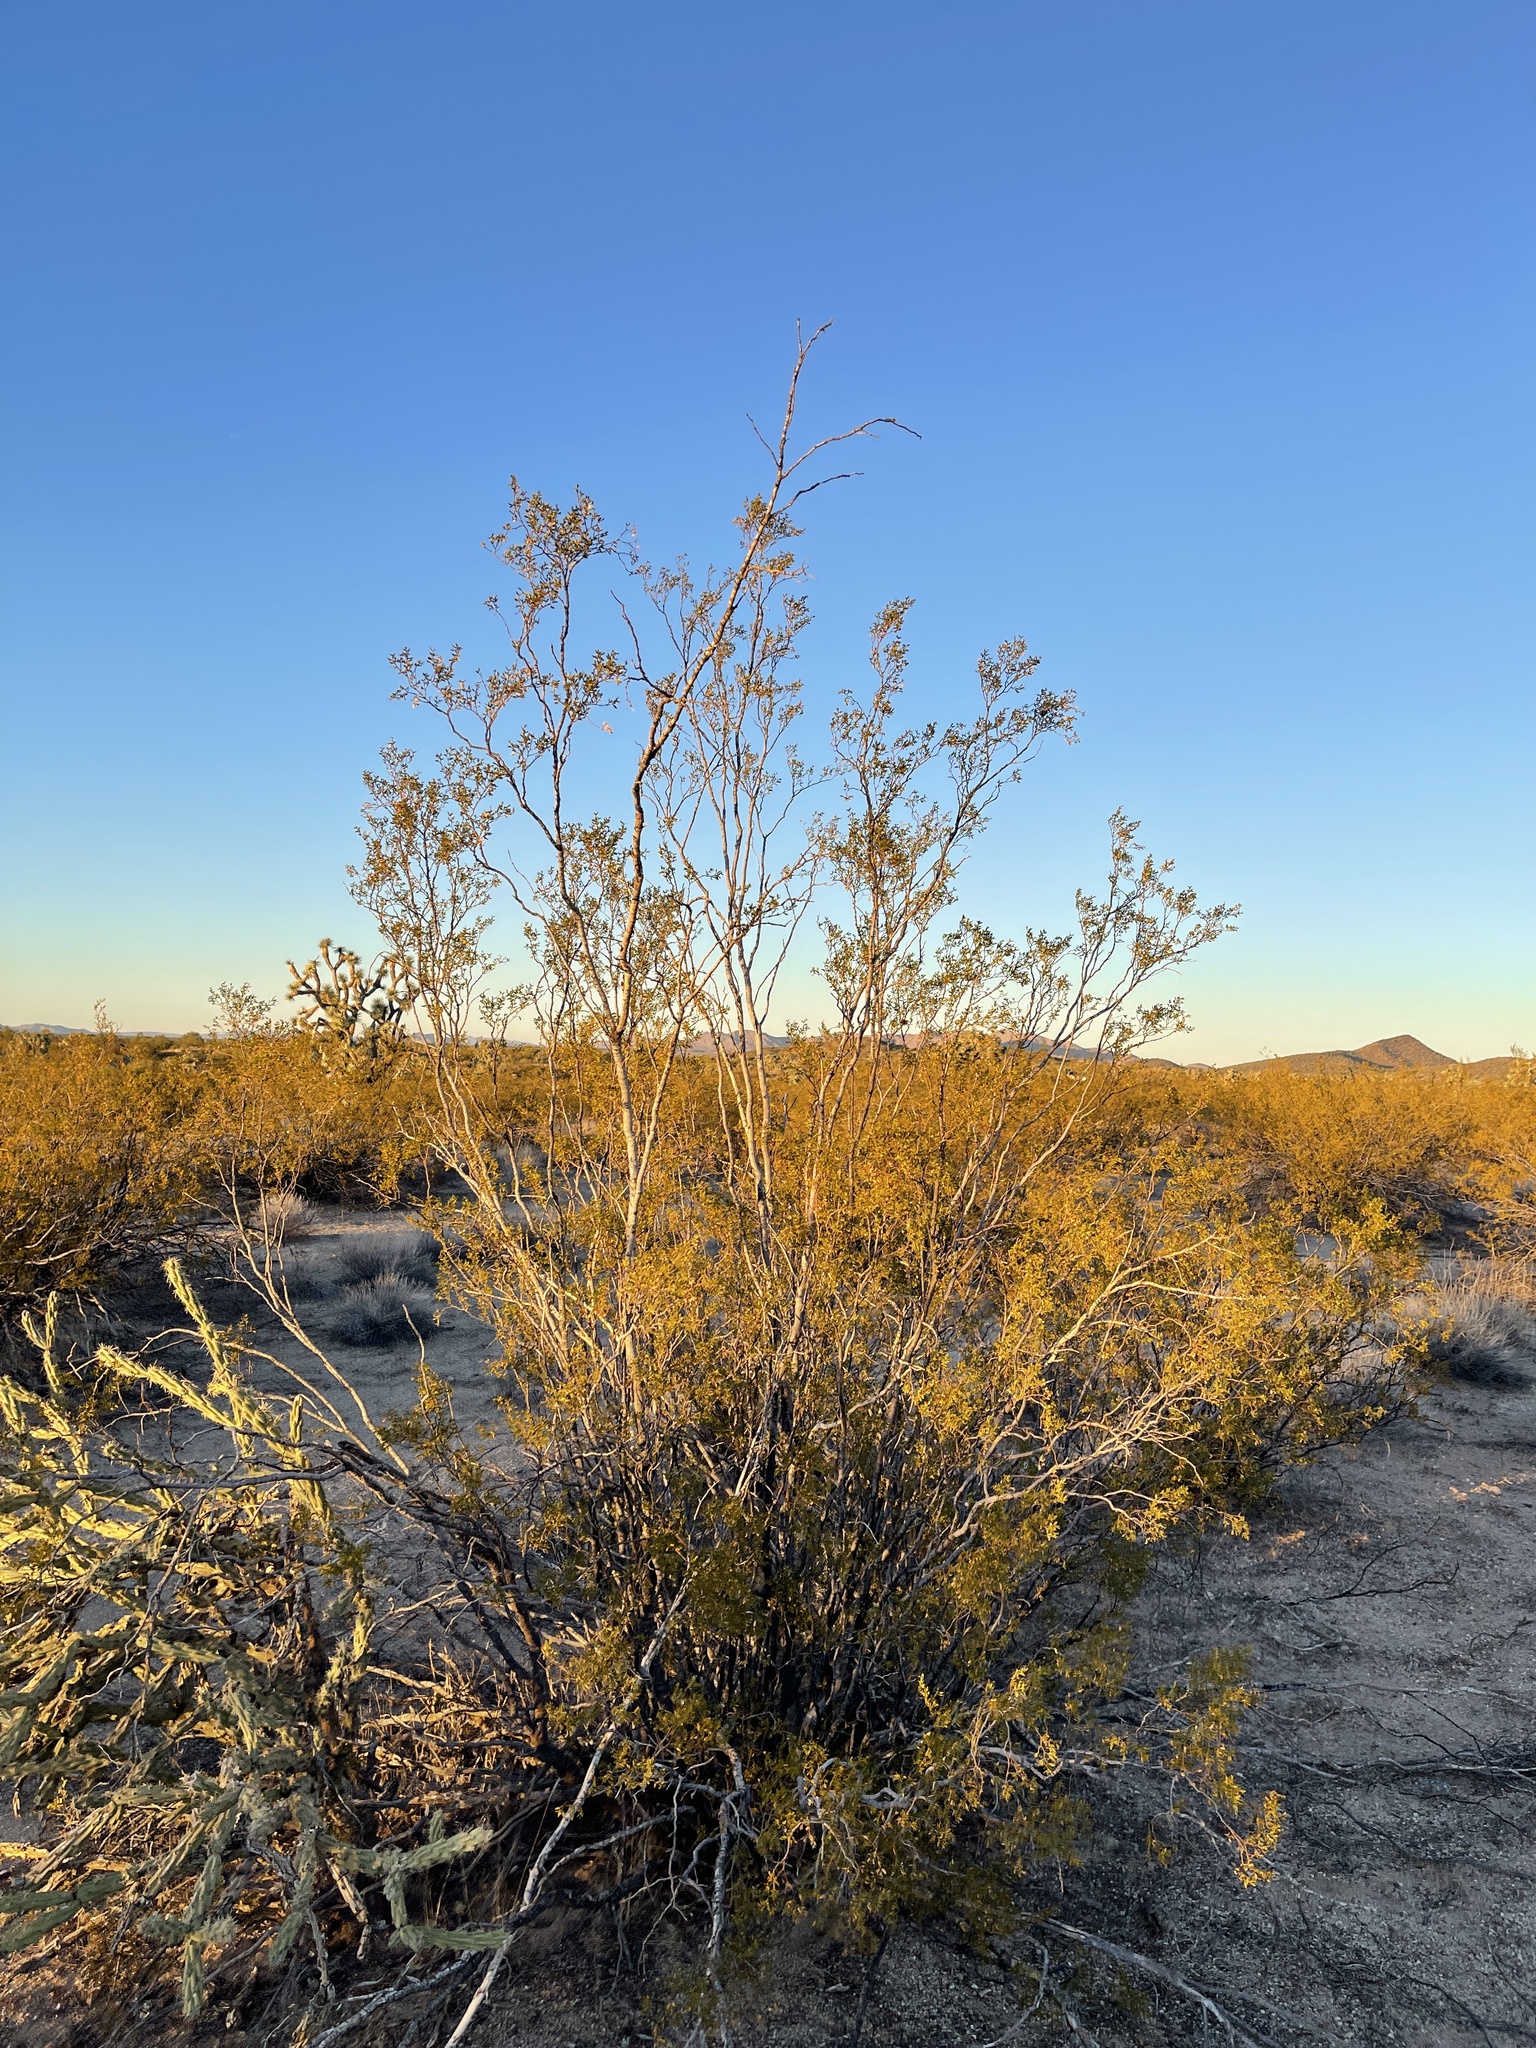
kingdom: Plantae
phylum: Tracheophyta
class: Magnoliopsida
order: Zygophyllales
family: Zygophyllaceae
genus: Larrea
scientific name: Larrea tridentata
